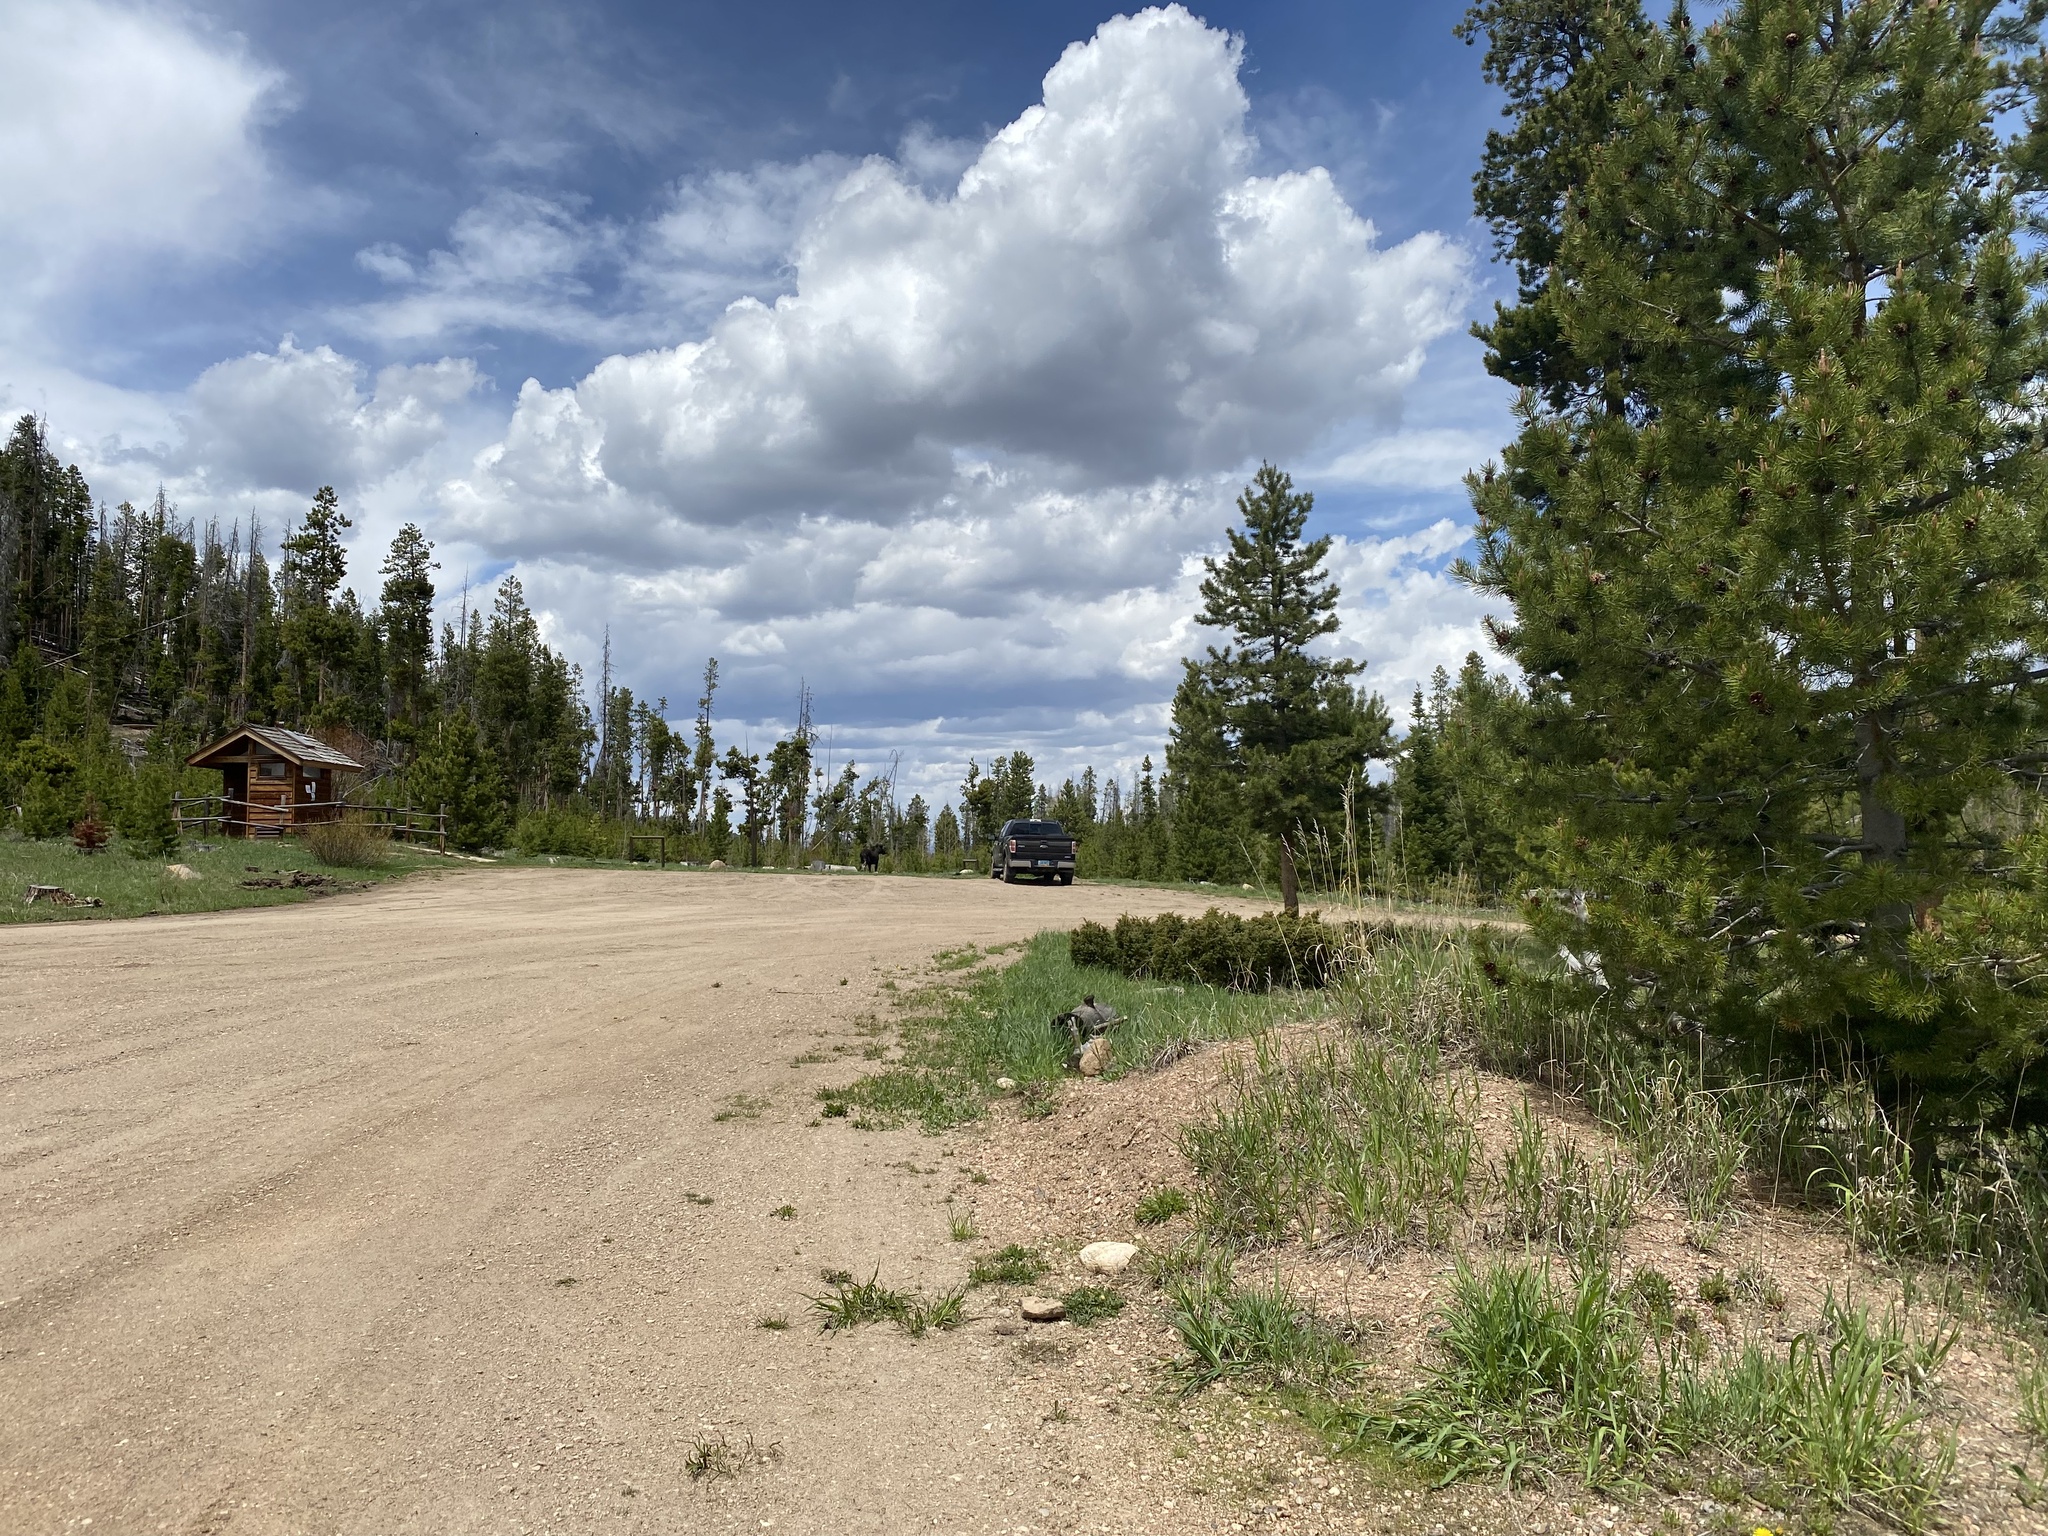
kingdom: Animalia
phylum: Chordata
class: Mammalia
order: Artiodactyla
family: Cervidae
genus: Alces
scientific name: Alces alces
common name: Moose
